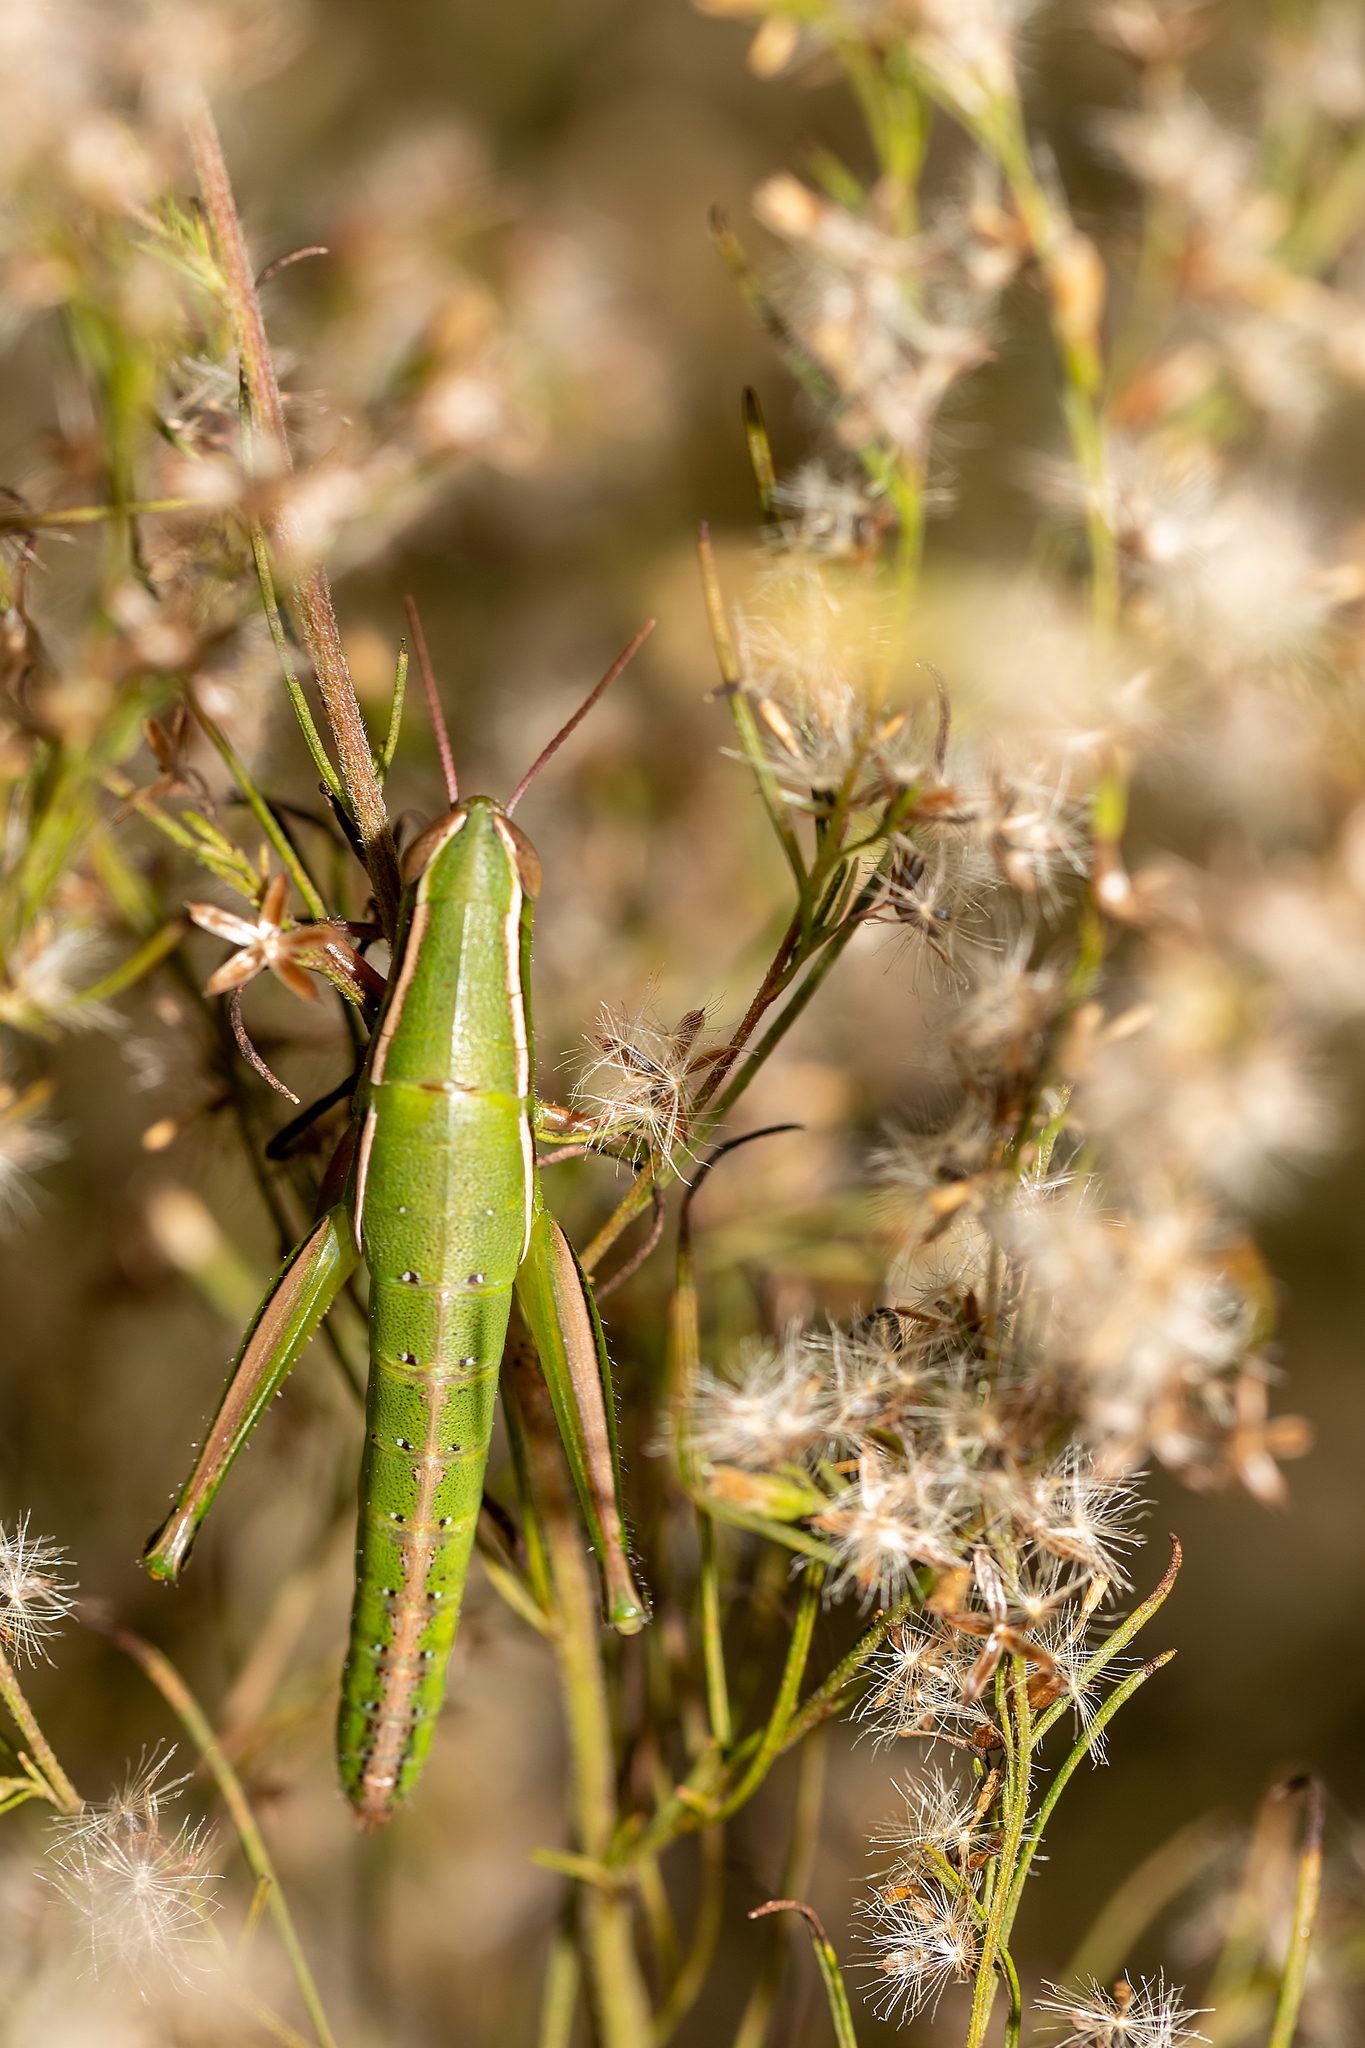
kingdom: Animalia
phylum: Arthropoda
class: Insecta
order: Orthoptera
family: Acrididae
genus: Aptenopedes
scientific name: Aptenopedes sphenarioides
